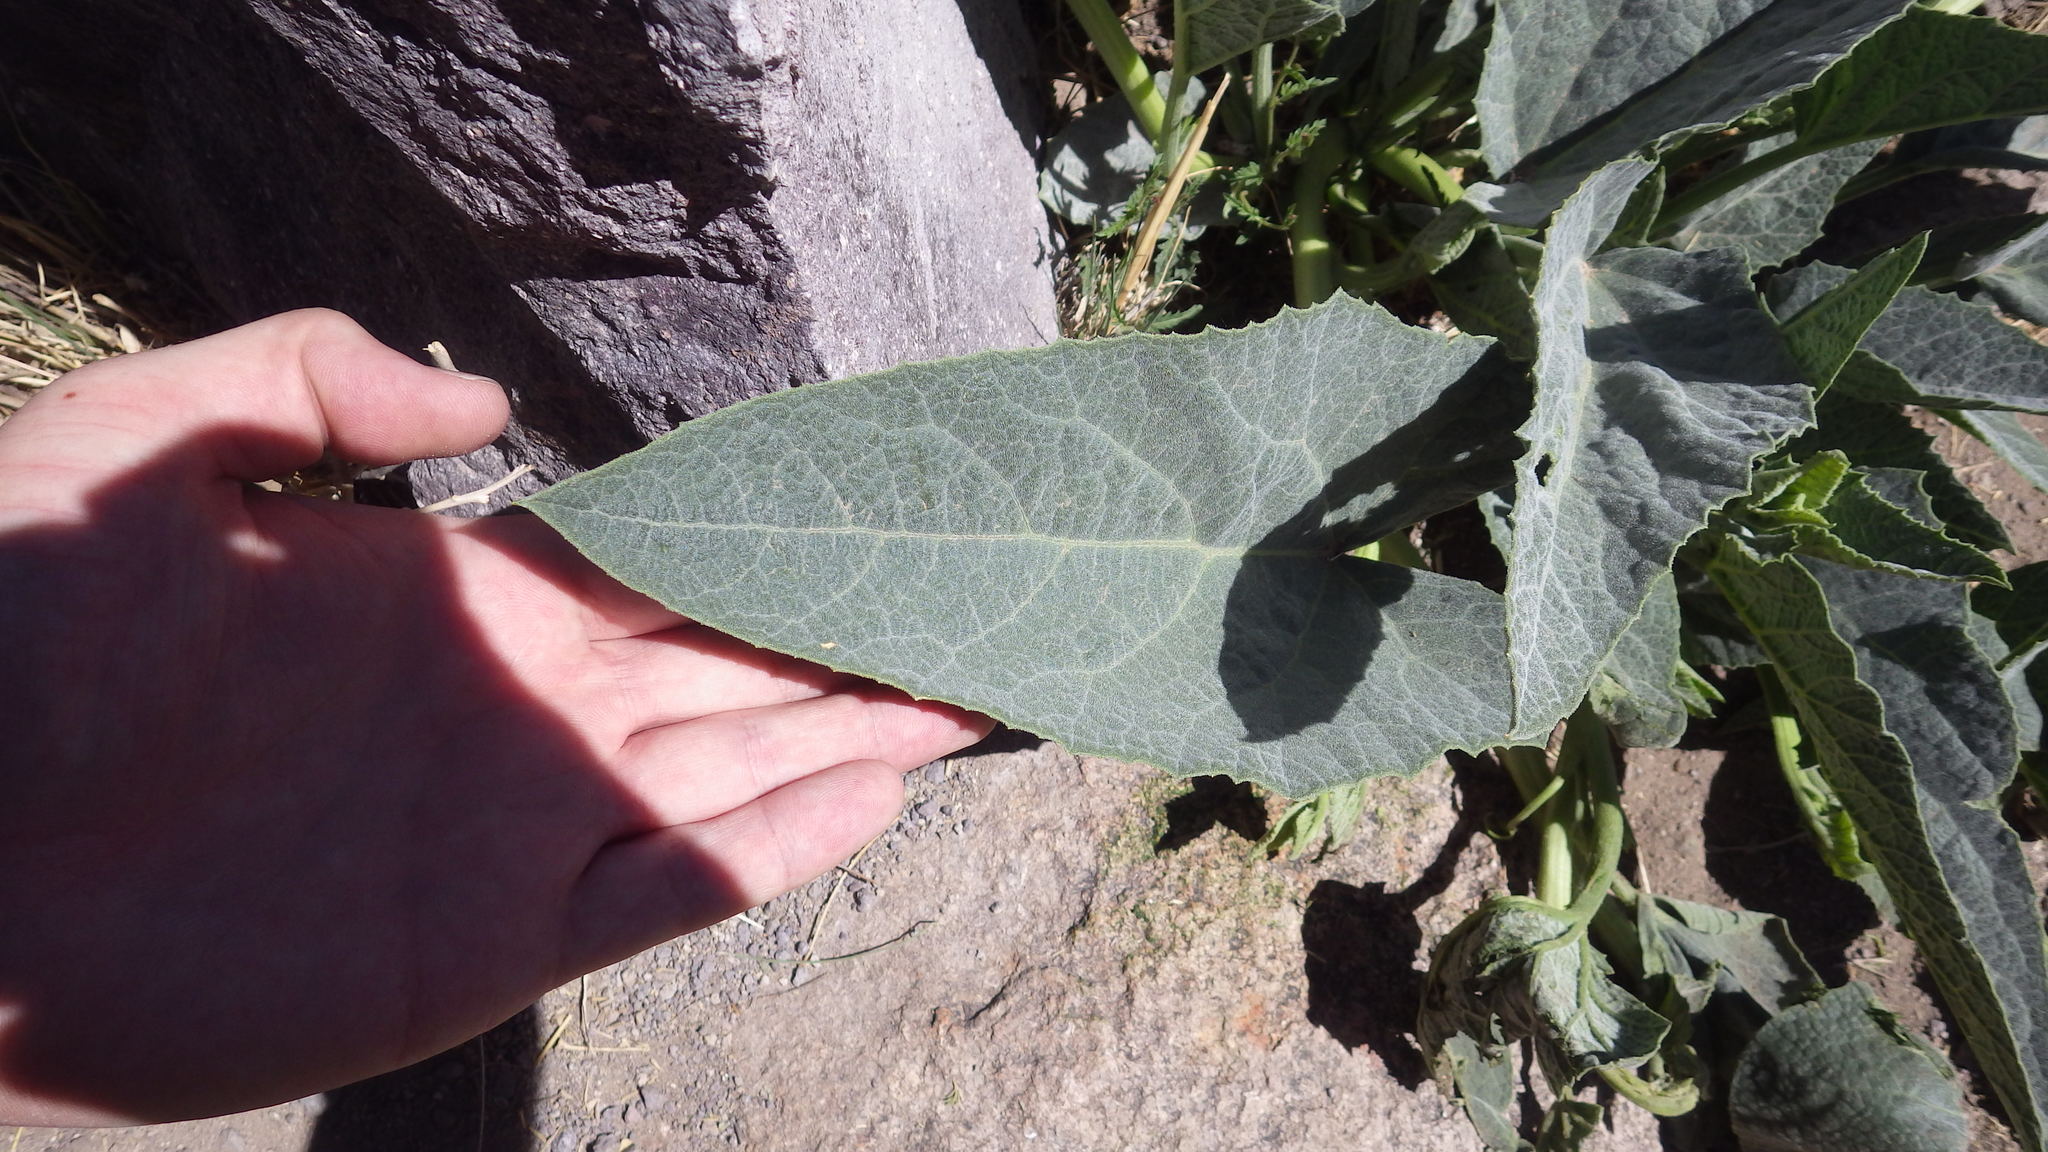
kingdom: Plantae
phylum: Tracheophyta
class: Magnoliopsida
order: Cucurbitales
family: Cucurbitaceae
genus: Cucurbita
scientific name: Cucurbita foetidissima
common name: Buffalo gourd
